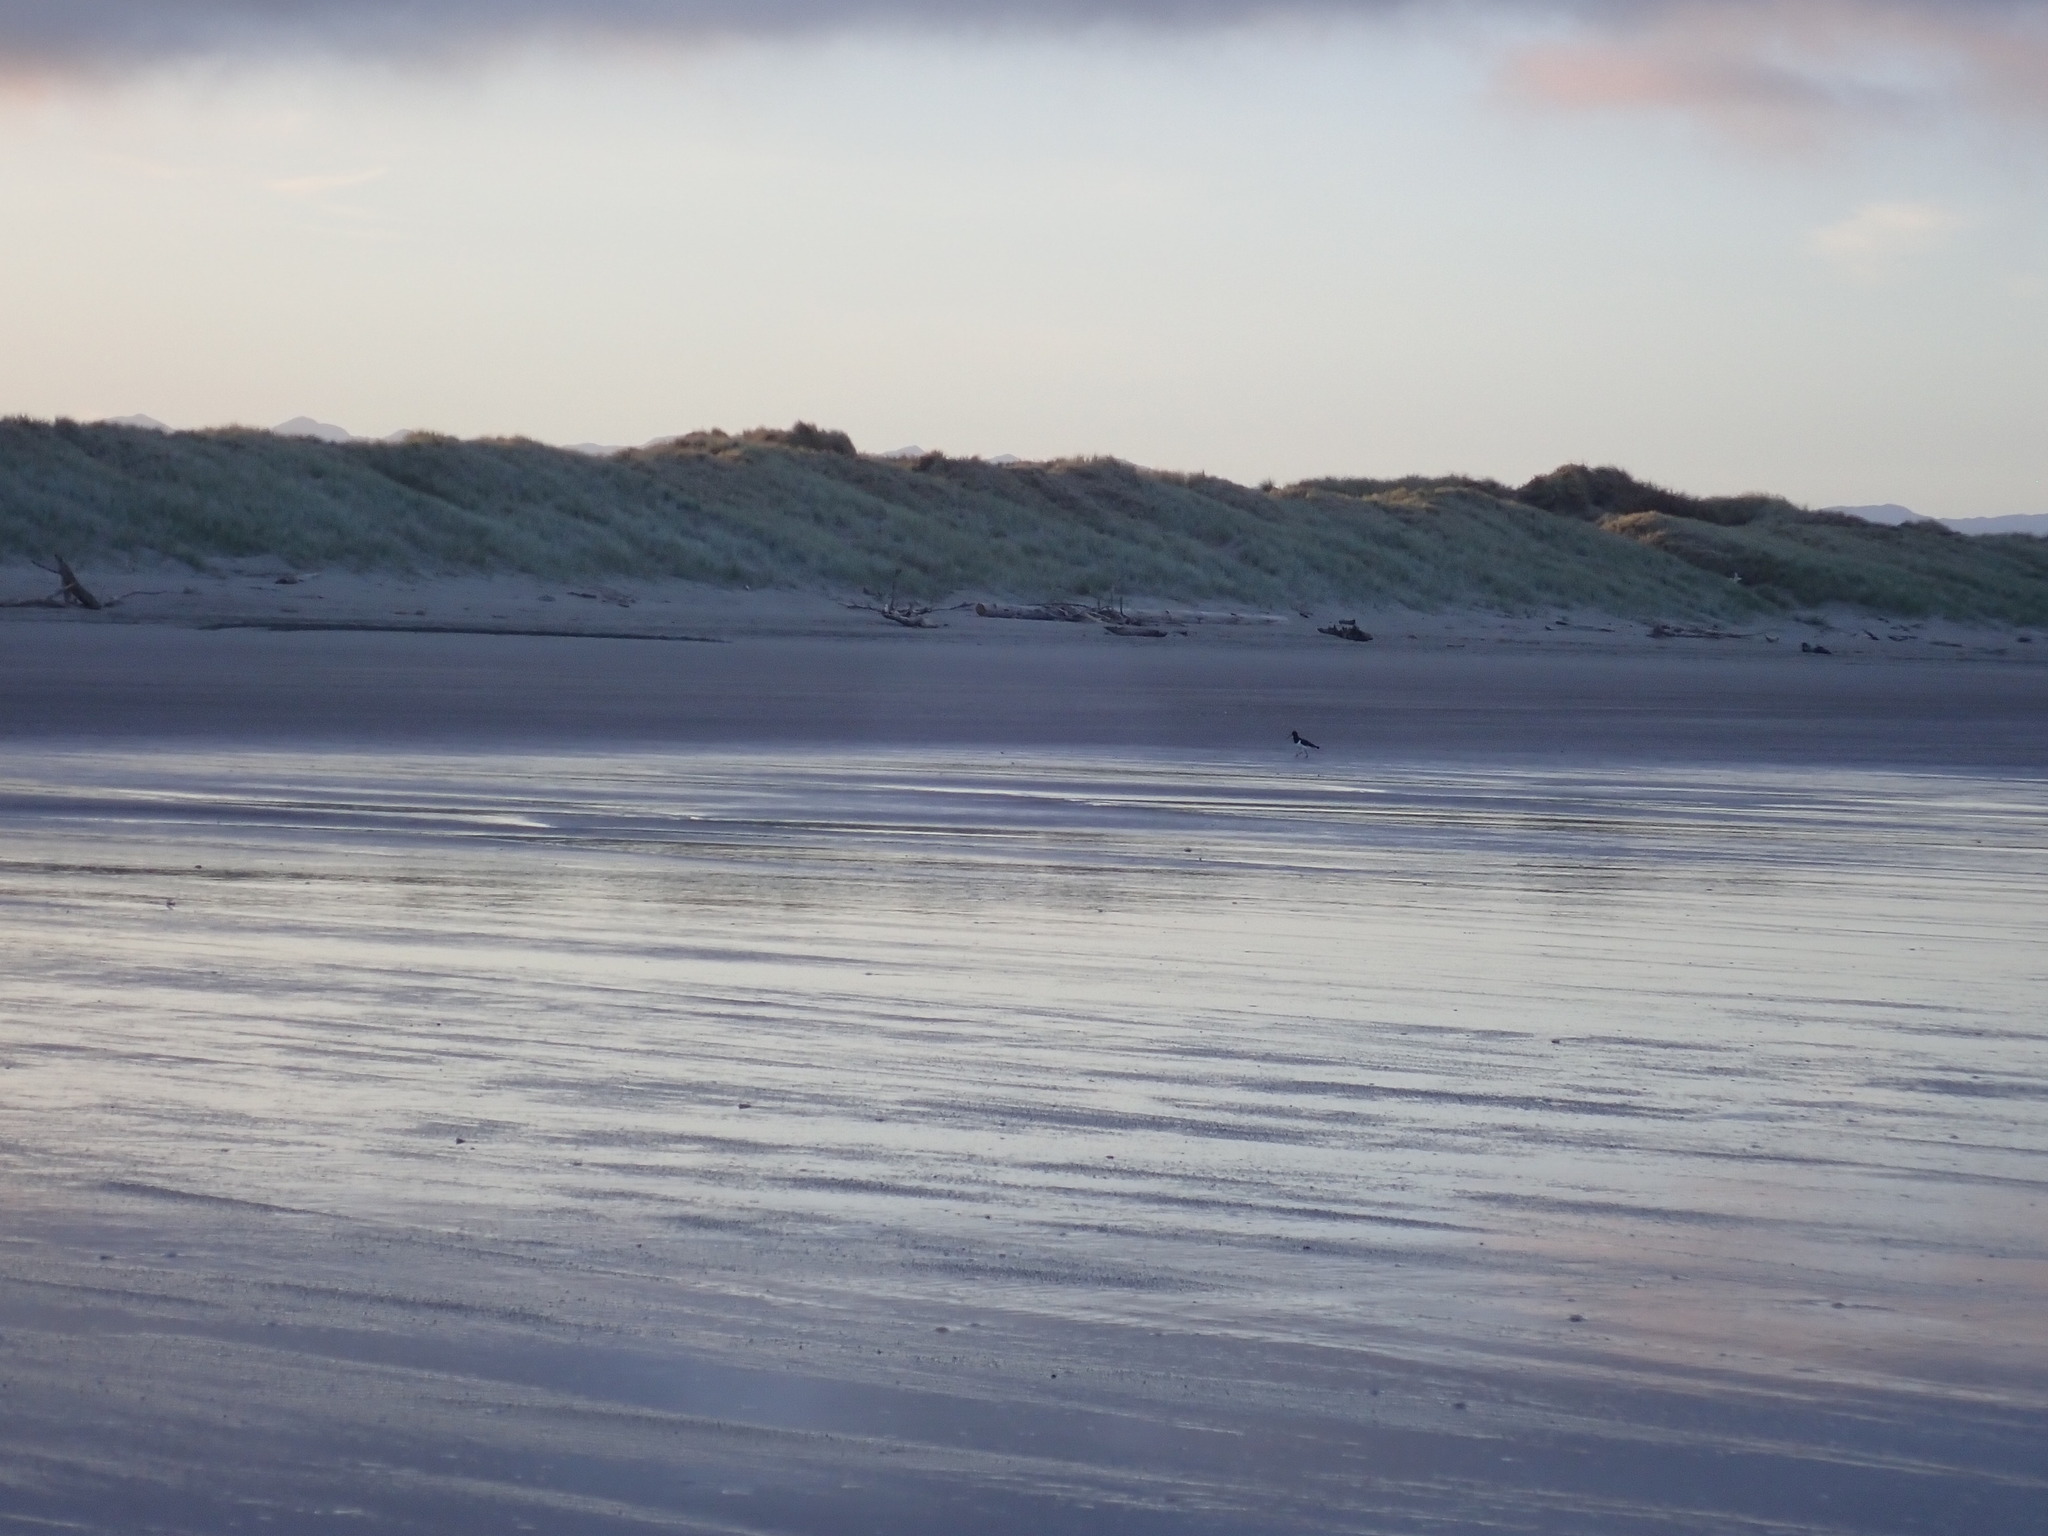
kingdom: Animalia
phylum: Chordata
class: Aves
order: Charadriiformes
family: Haematopodidae
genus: Haematopus
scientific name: Haematopus finschi
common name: South island oystercatcher
